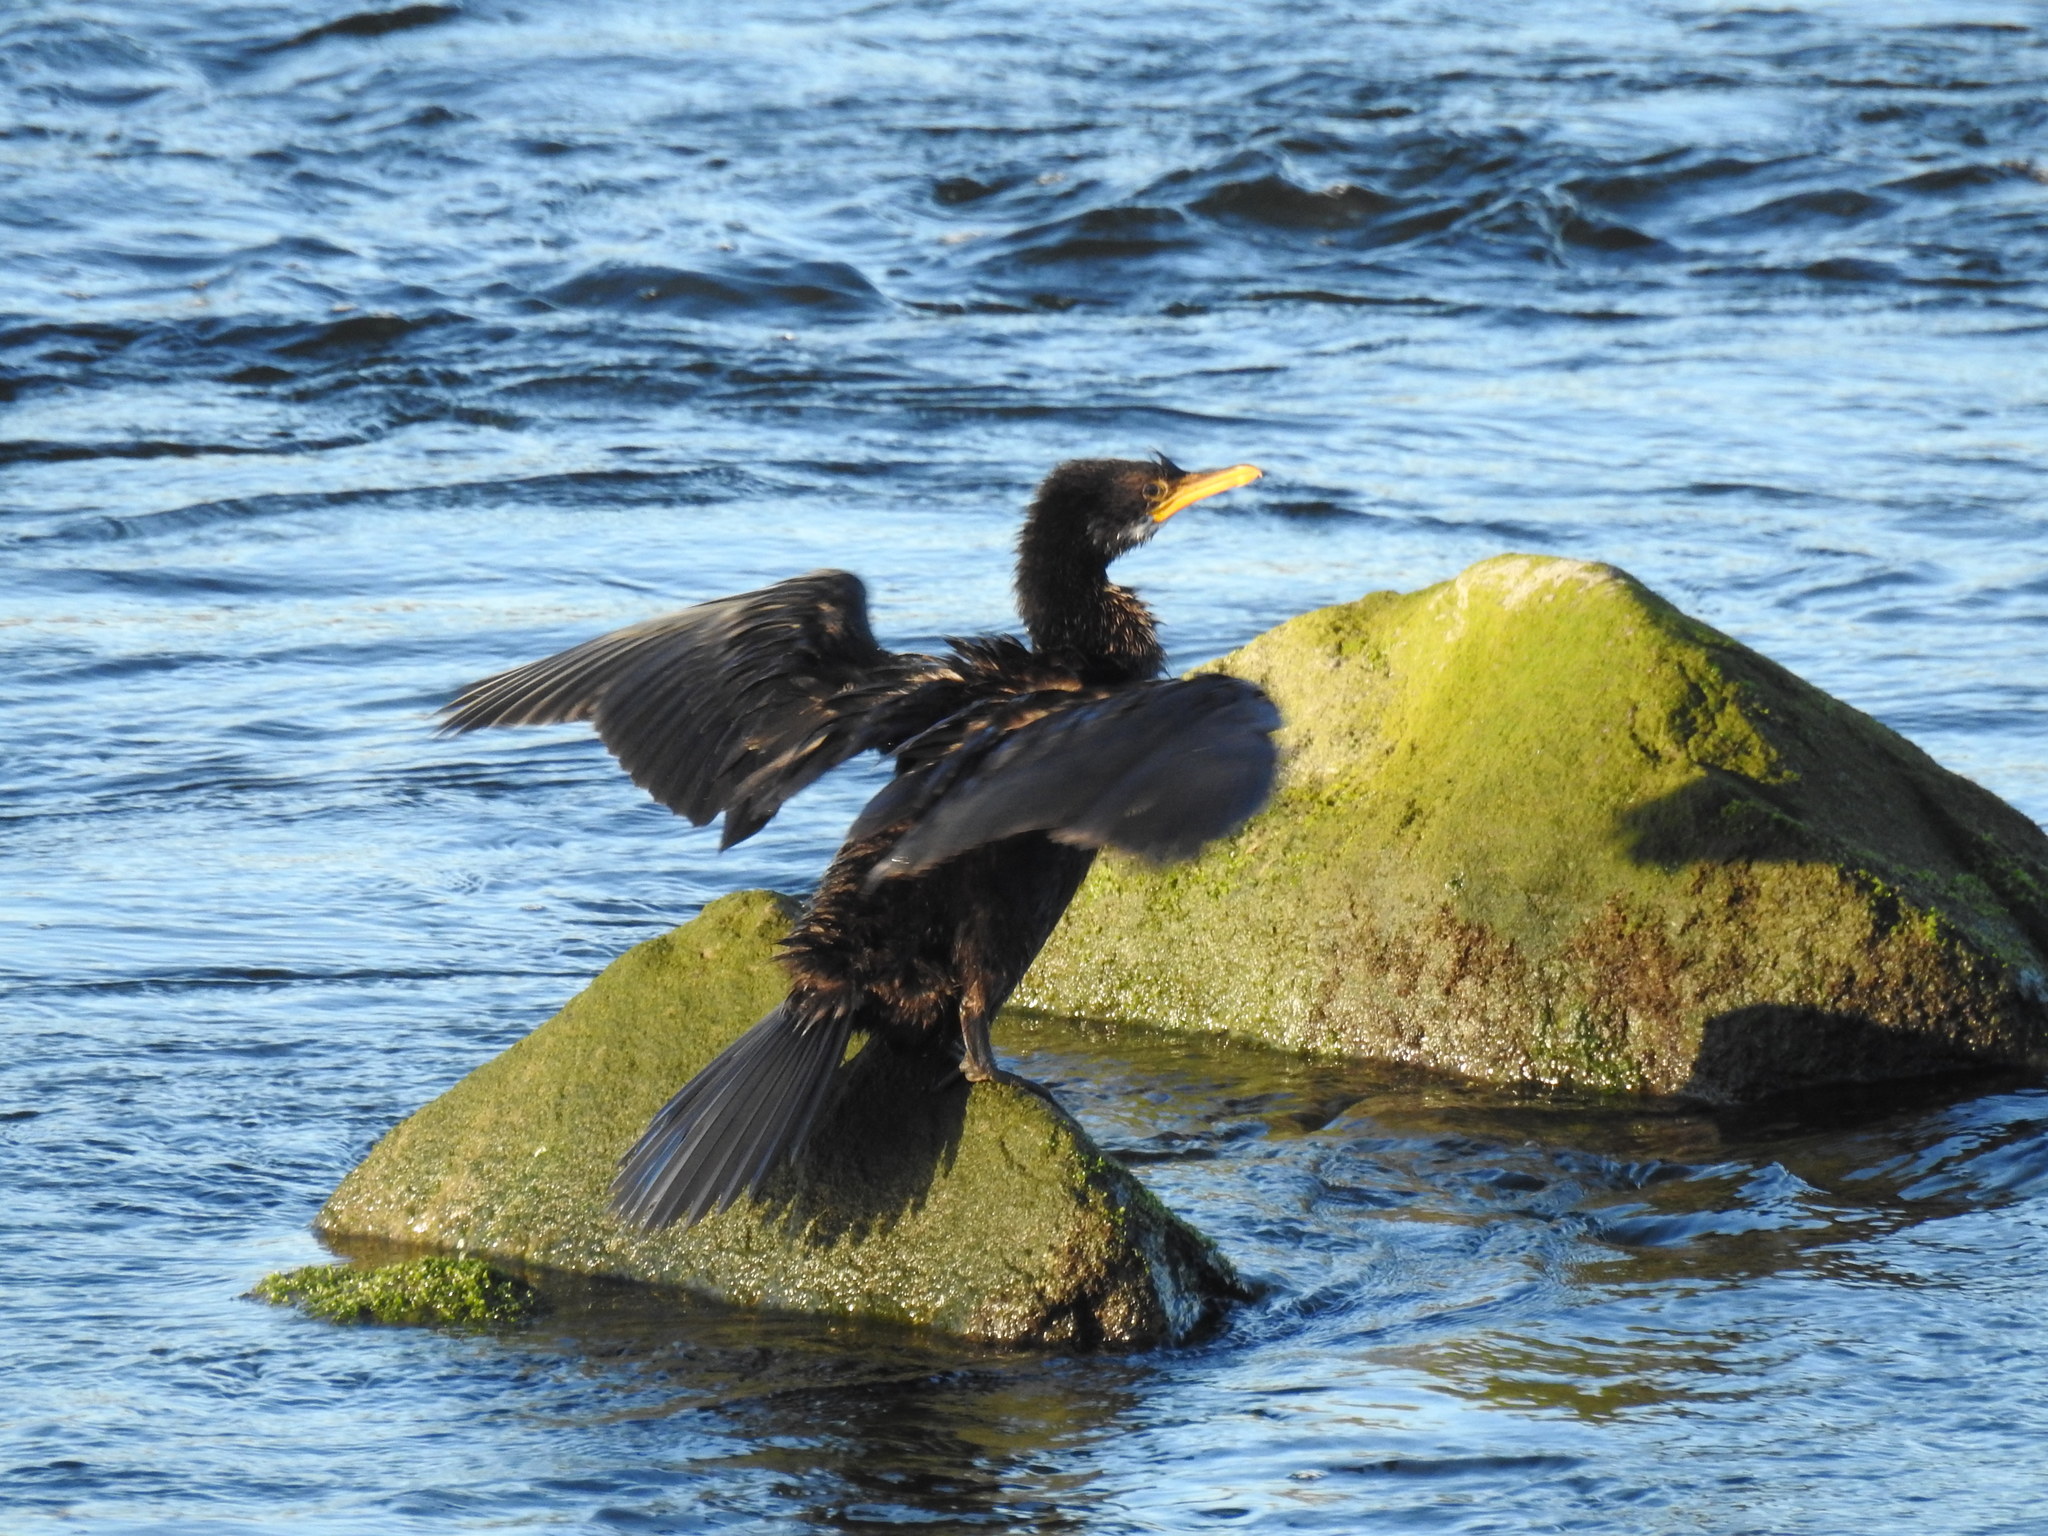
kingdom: Animalia
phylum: Chordata
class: Aves
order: Suliformes
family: Phalacrocoracidae
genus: Microcarbo
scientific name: Microcarbo melanoleucos
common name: Little pied cormorant
